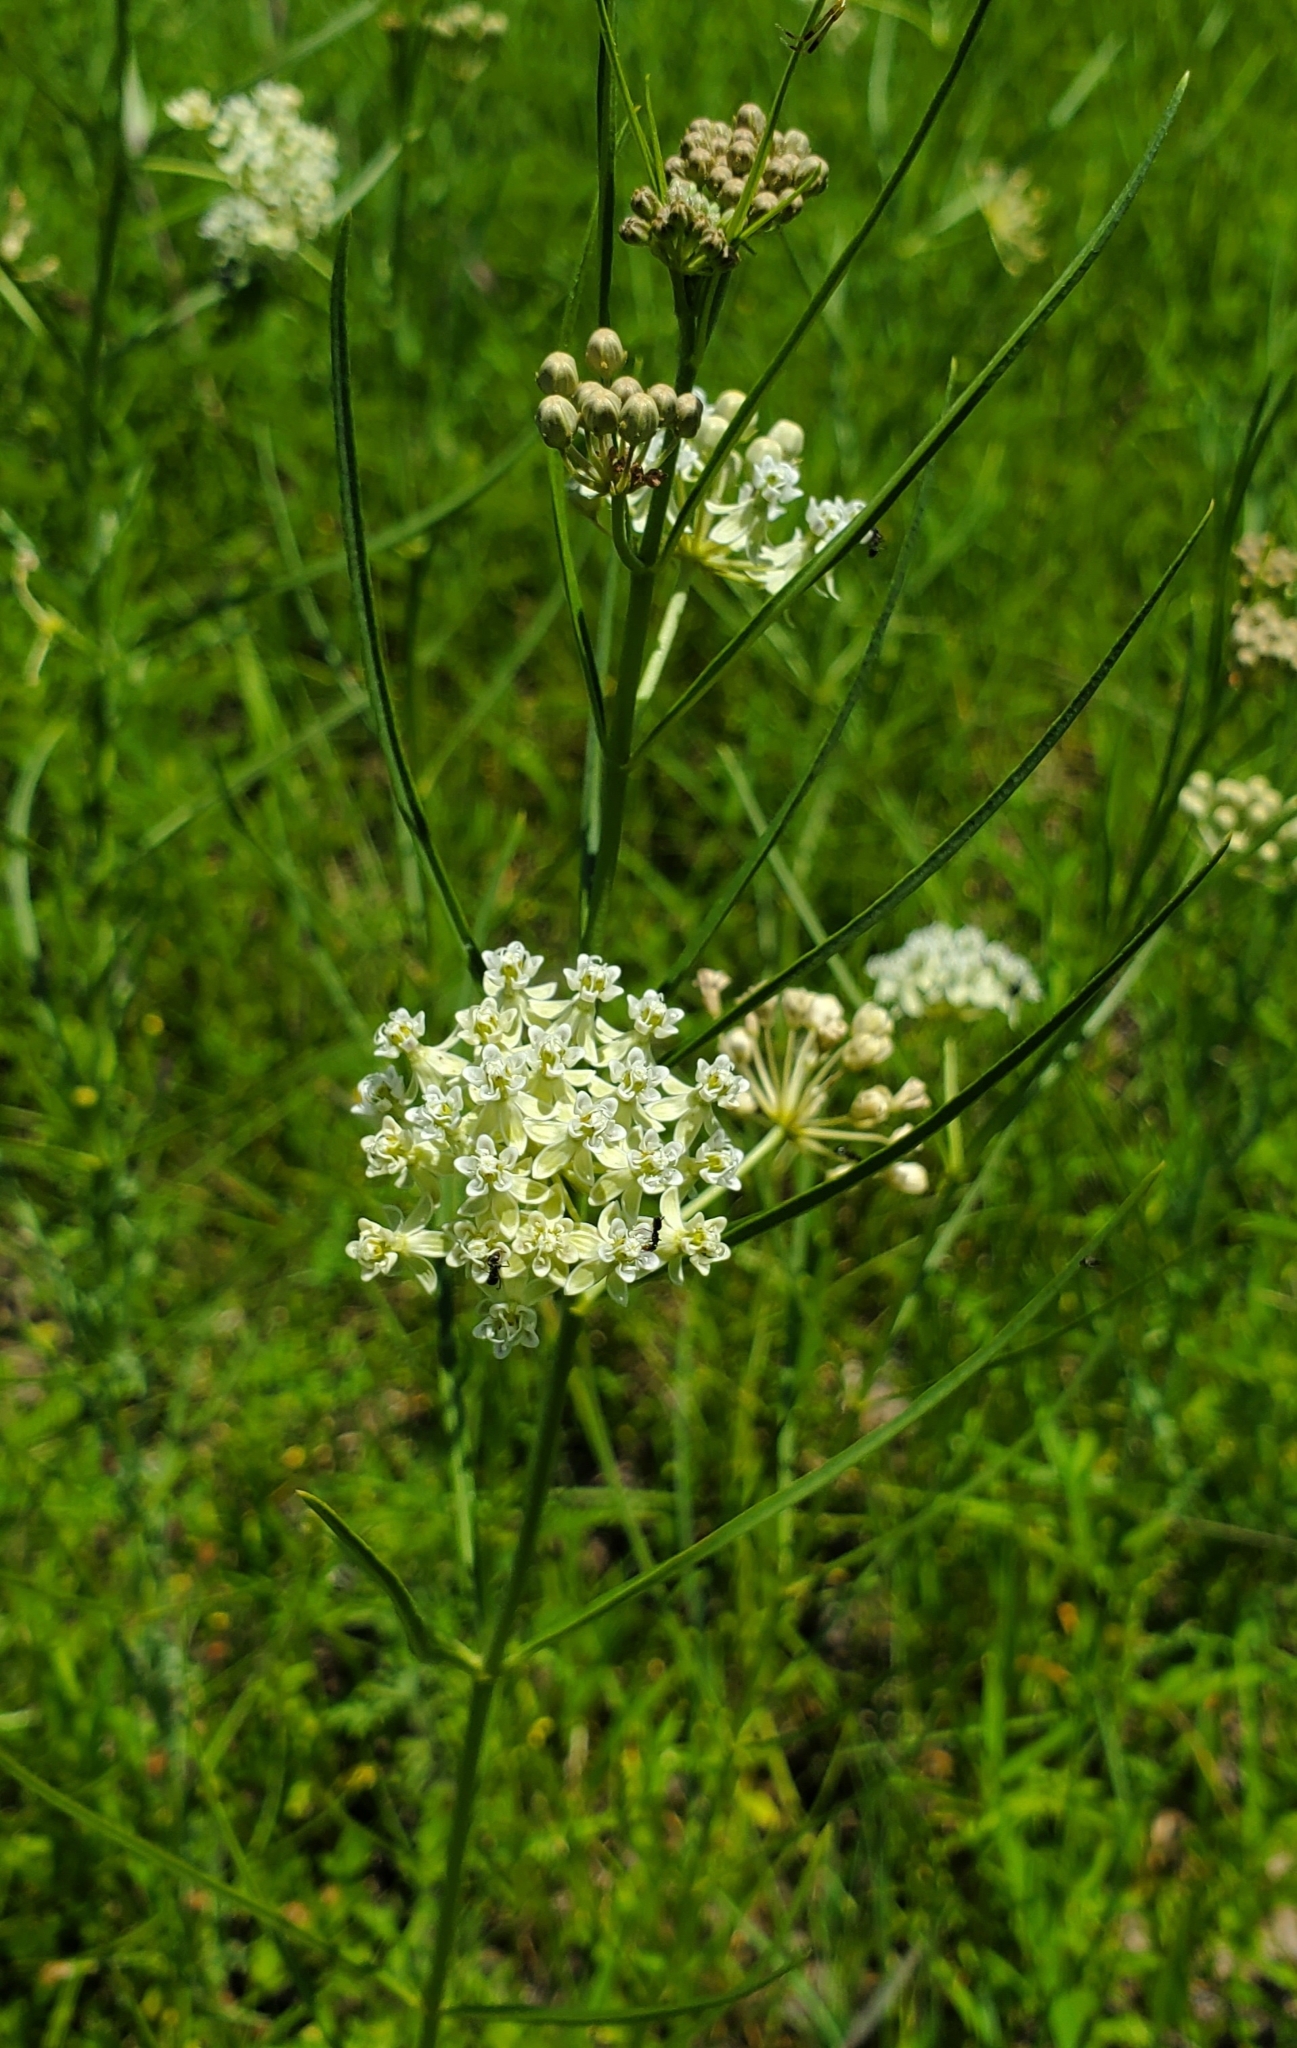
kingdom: Plantae
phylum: Tracheophyta
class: Magnoliopsida
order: Gentianales
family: Apocynaceae
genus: Asclepias
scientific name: Asclepias subverticillata
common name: Horsetail milkweed
